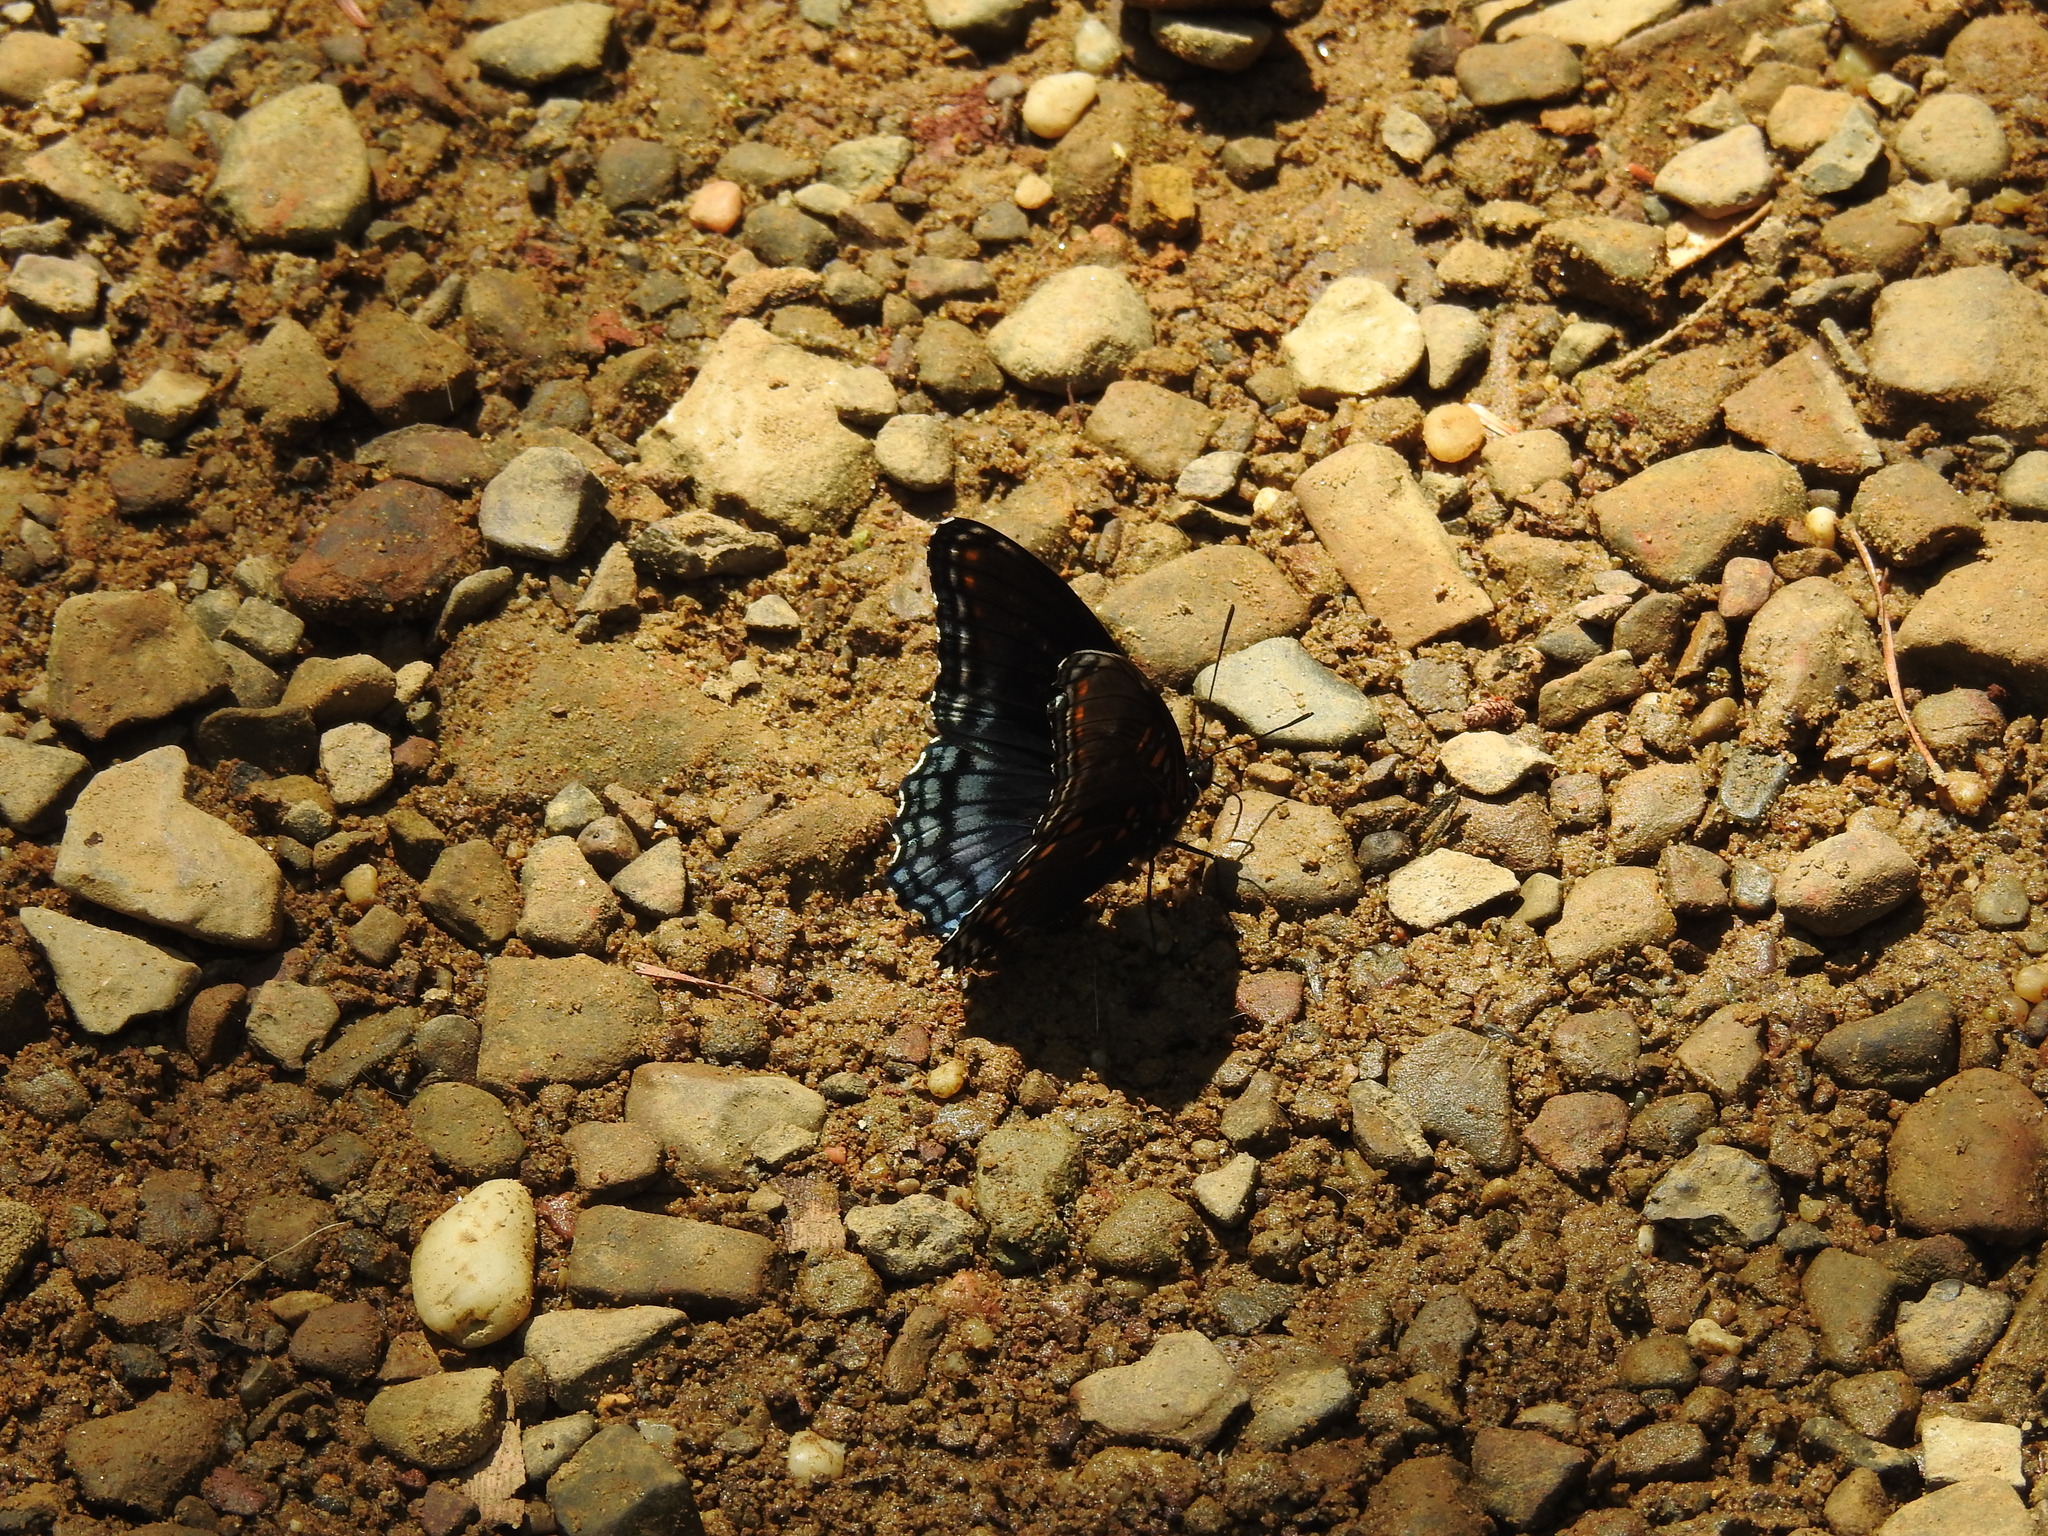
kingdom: Animalia
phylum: Arthropoda
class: Insecta
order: Lepidoptera
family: Nymphalidae
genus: Limenitis
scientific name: Limenitis astyanax
